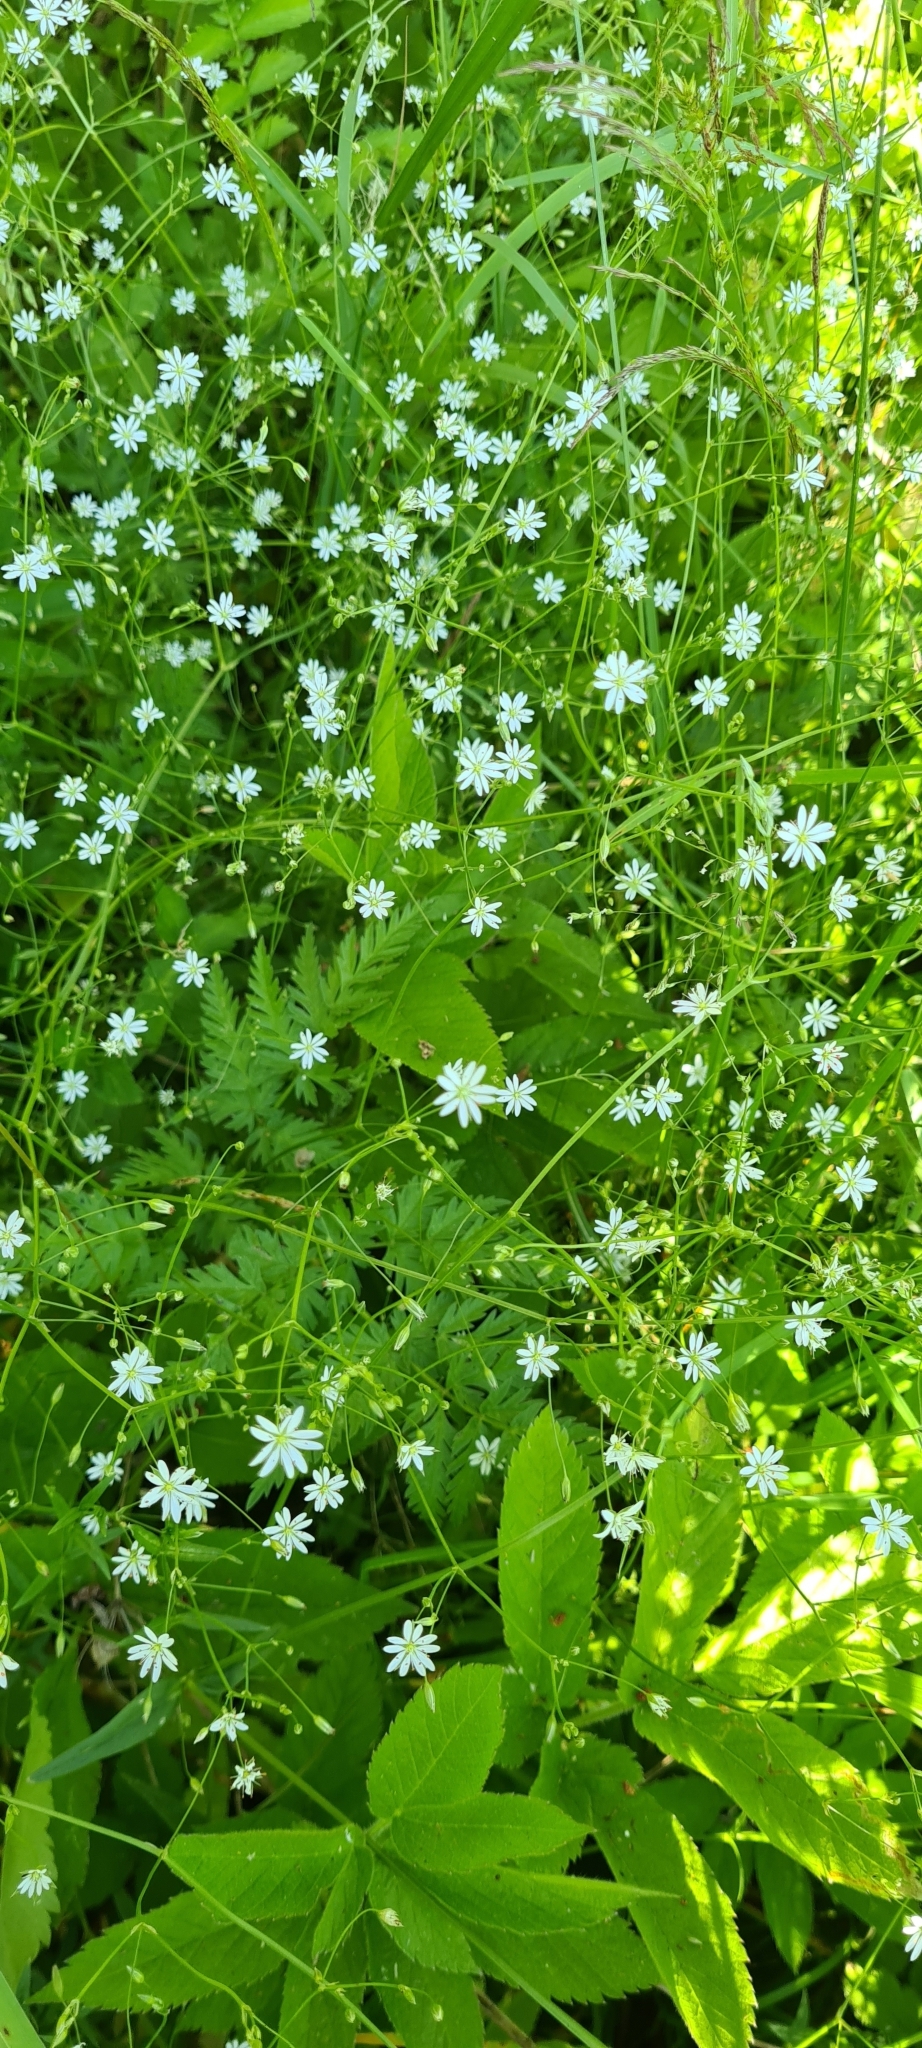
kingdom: Plantae
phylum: Tracheophyta
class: Magnoliopsida
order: Caryophyllales
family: Caryophyllaceae
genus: Stellaria
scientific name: Stellaria graminea
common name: Grass-like starwort
